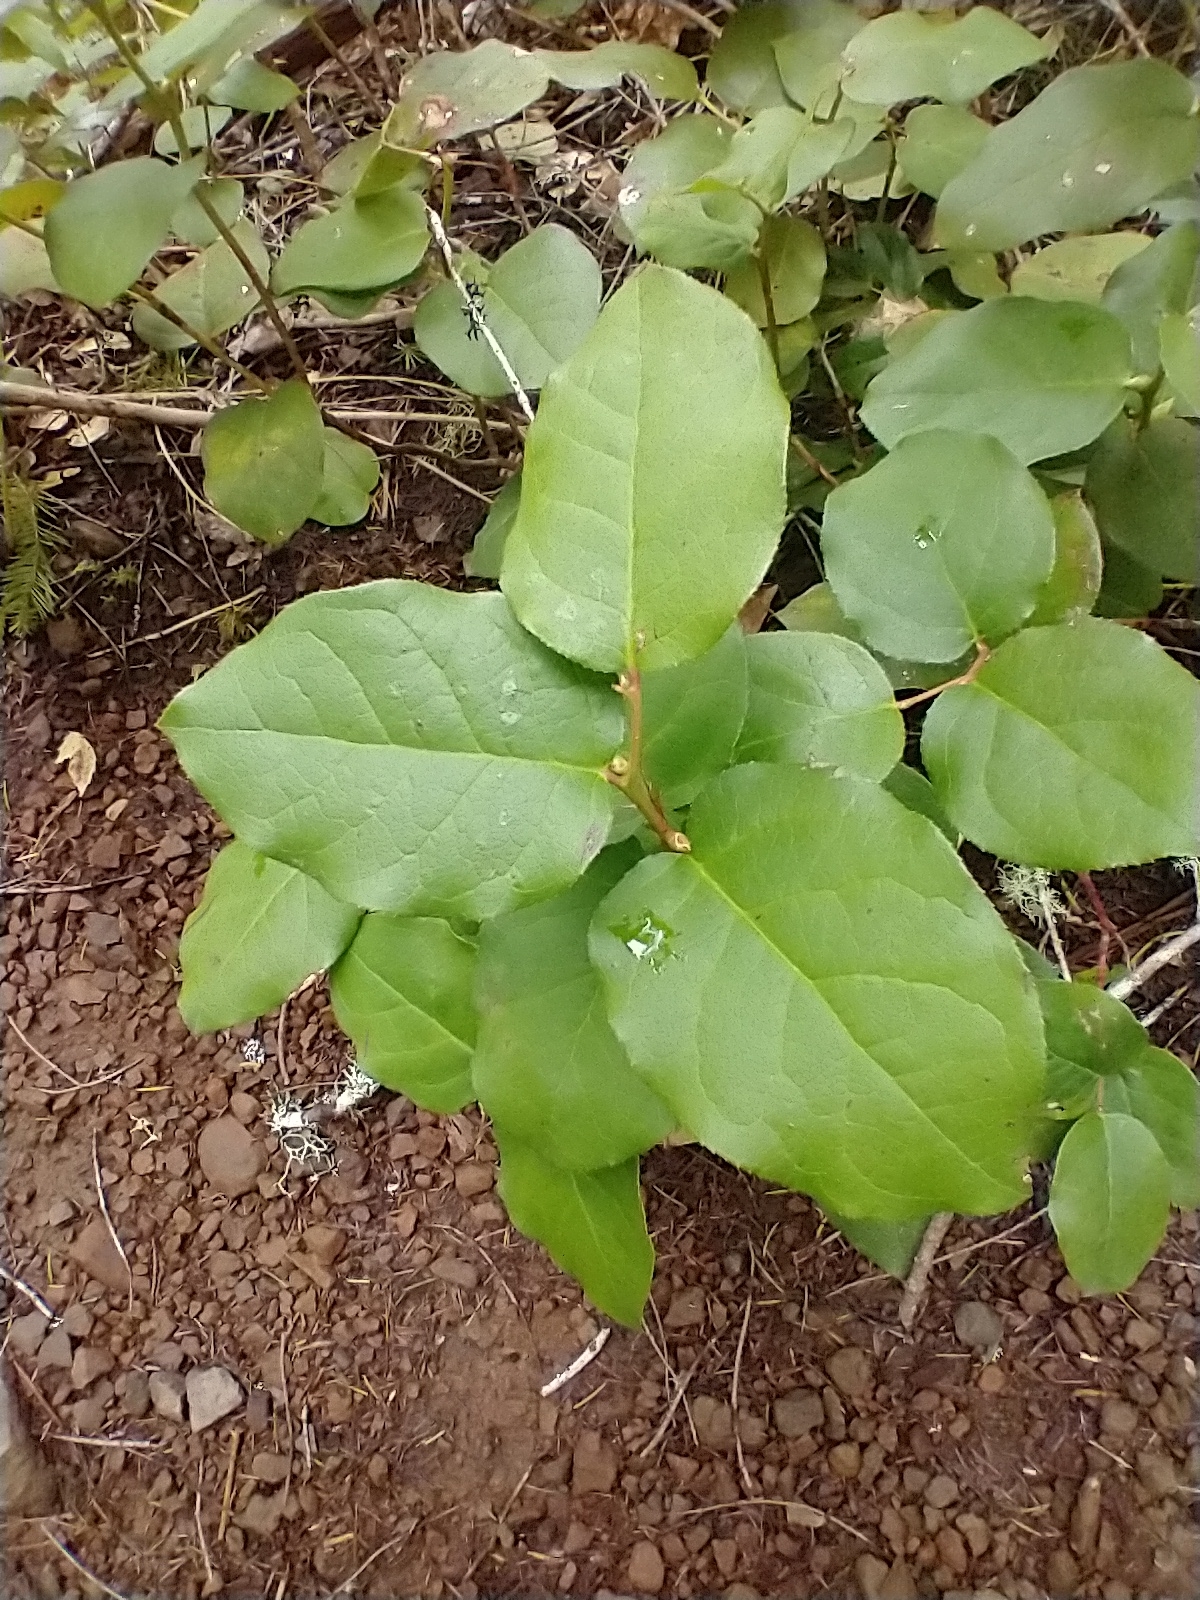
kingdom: Plantae
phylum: Tracheophyta
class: Magnoliopsida
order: Ericales
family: Ericaceae
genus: Gaultheria
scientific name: Gaultheria shallon
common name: Shallon
